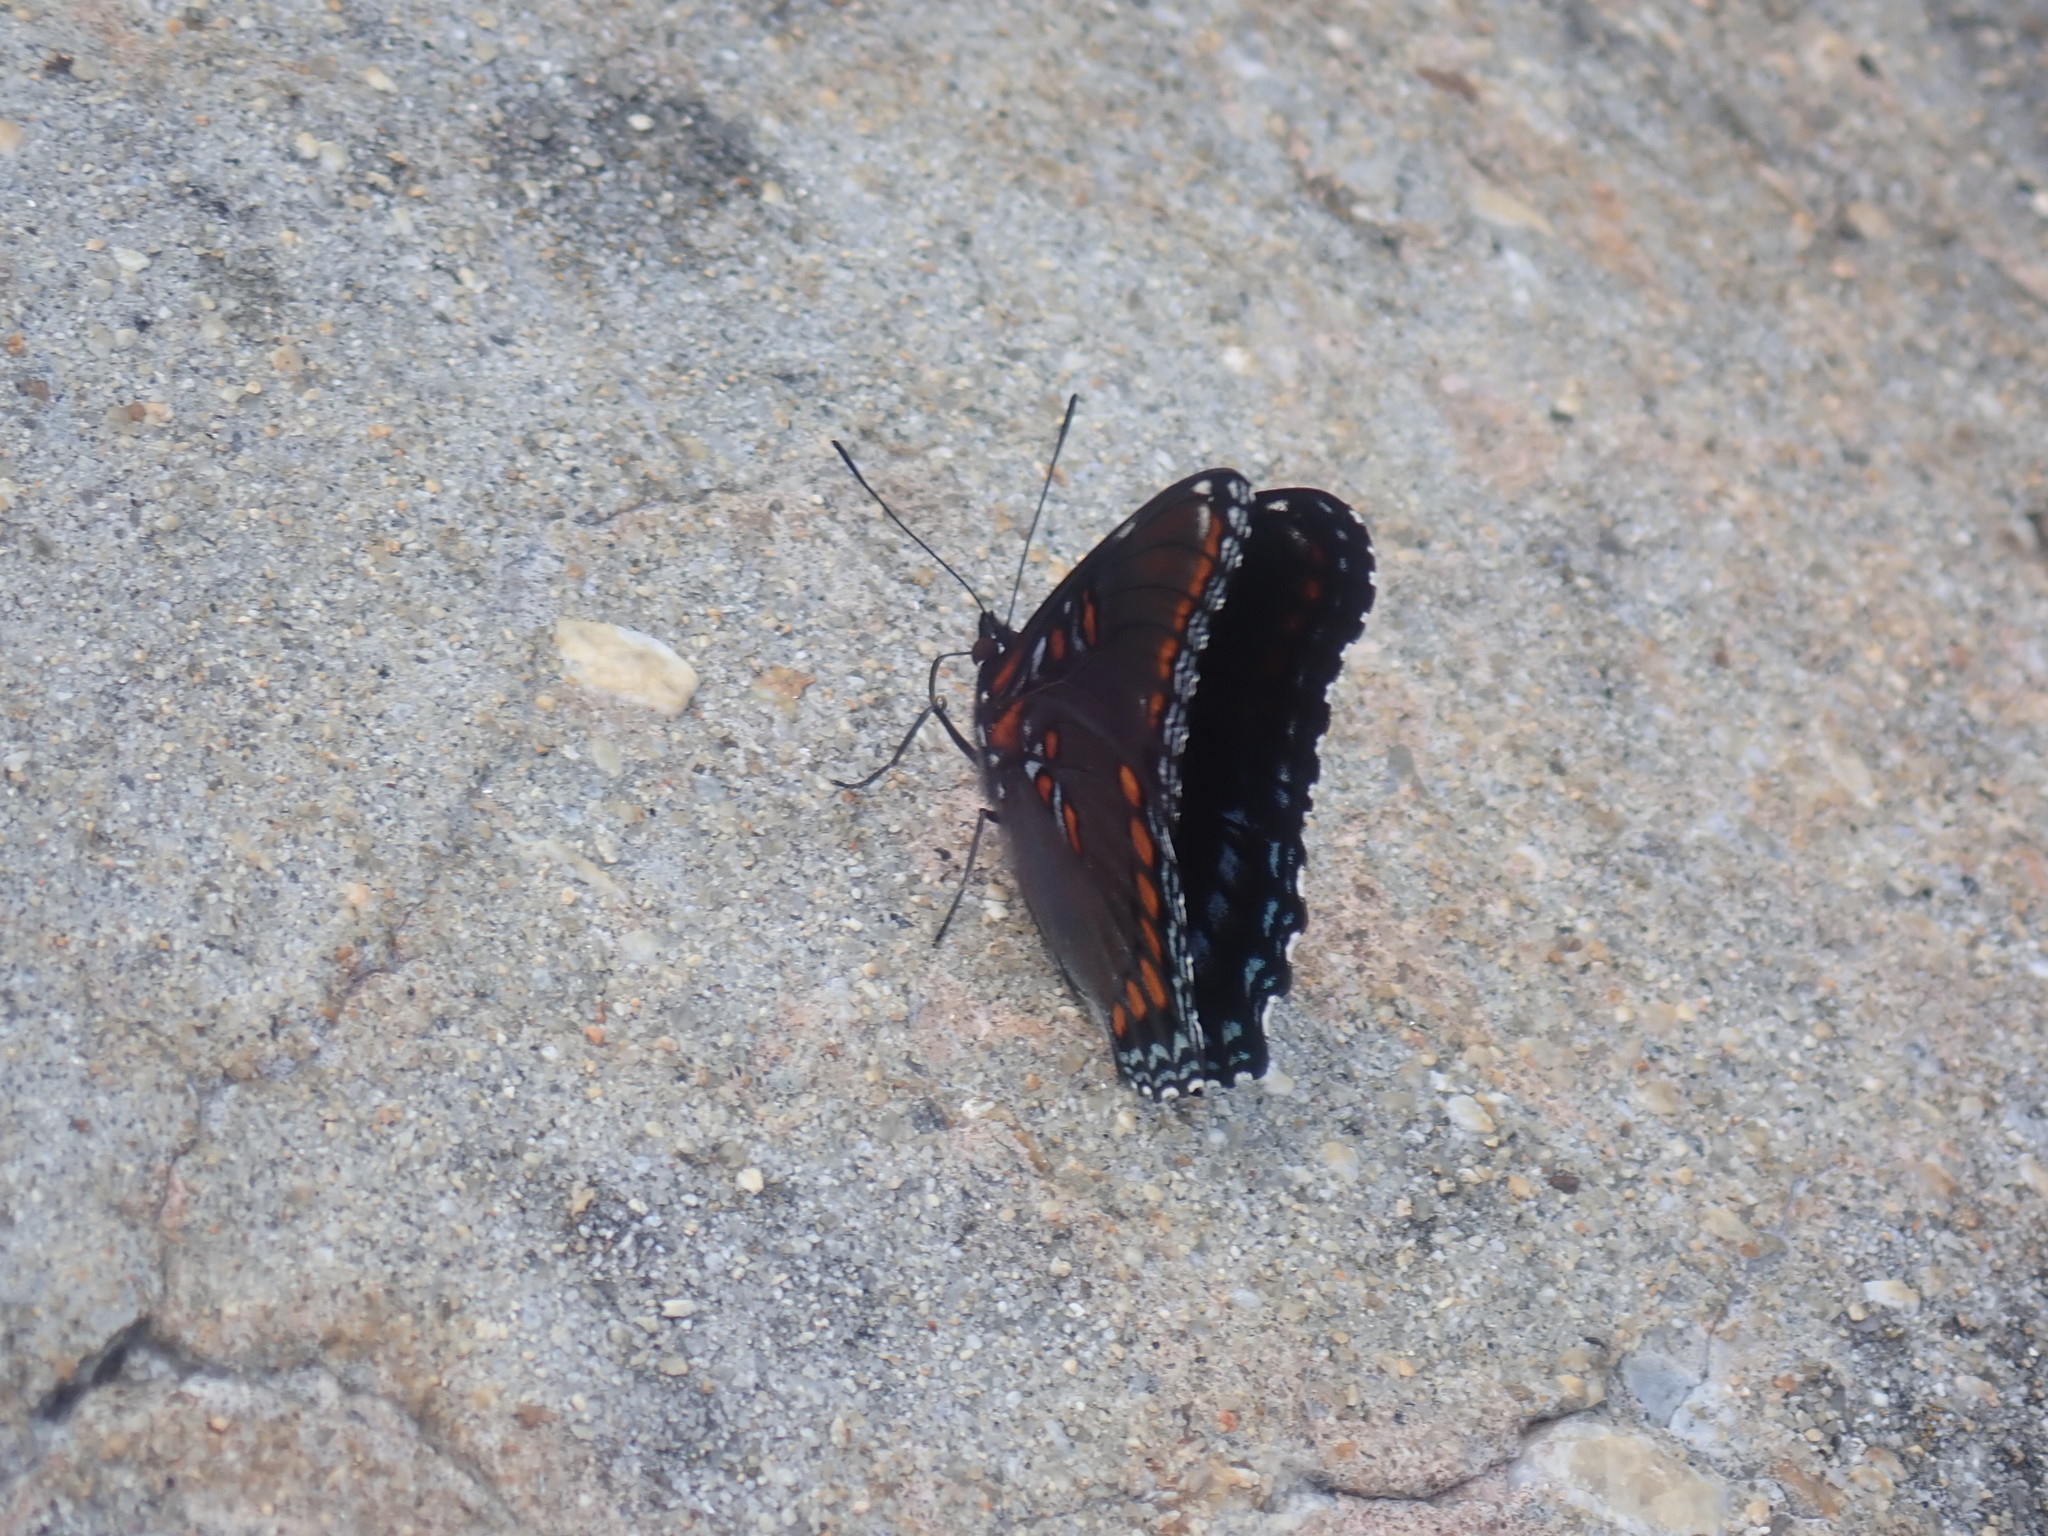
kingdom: Animalia
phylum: Arthropoda
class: Insecta
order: Lepidoptera
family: Nymphalidae
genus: Limenitis
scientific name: Limenitis astyanax
